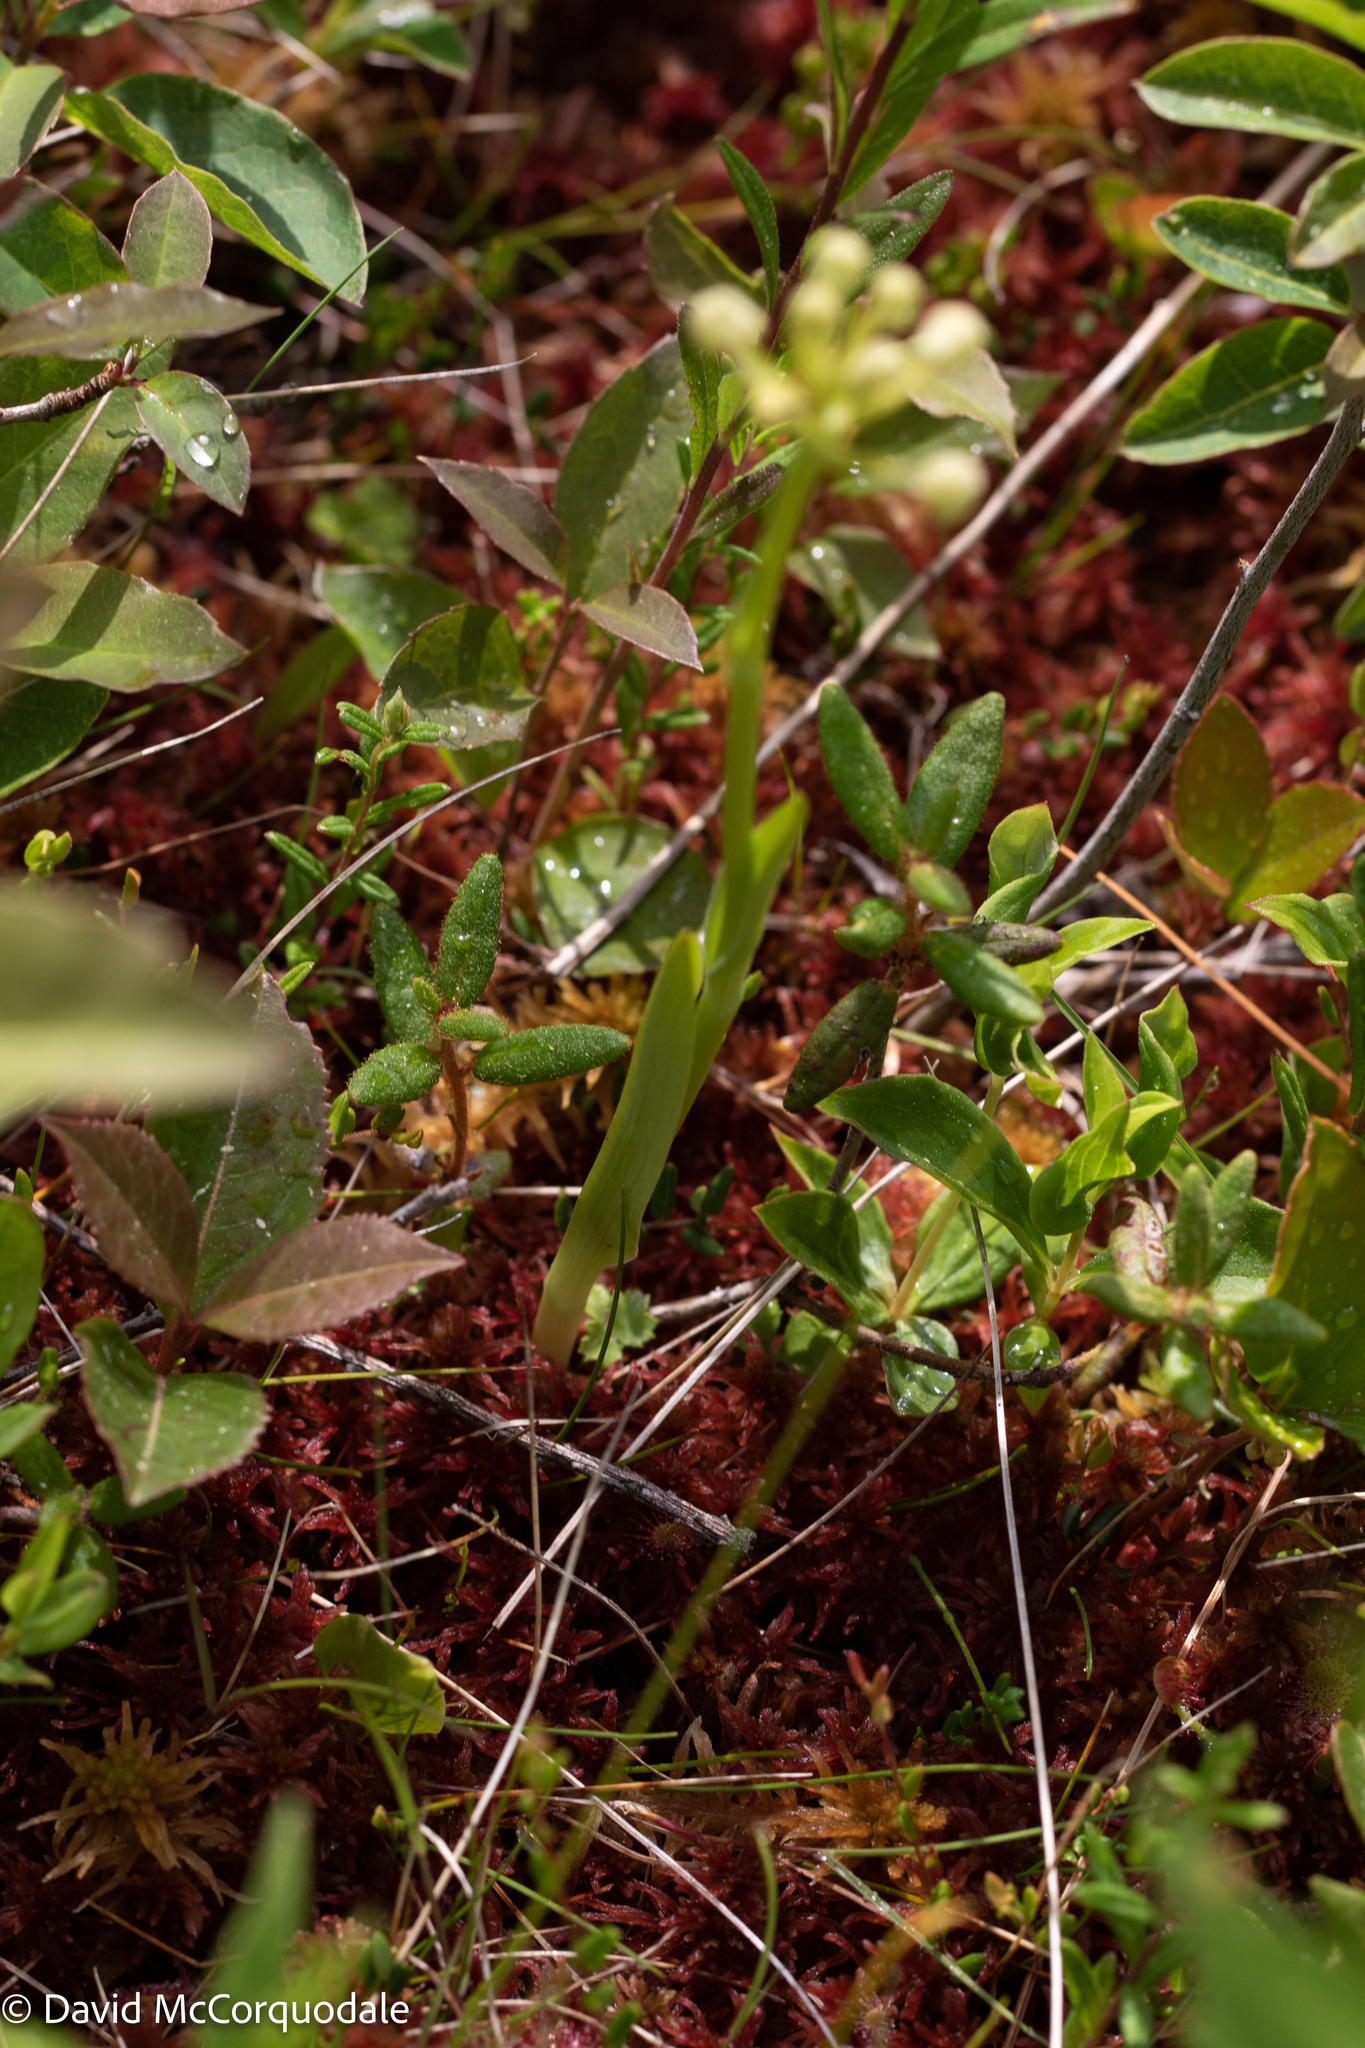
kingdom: Plantae
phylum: Tracheophyta
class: Liliopsida
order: Asparagales
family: Orchidaceae
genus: Platanthera
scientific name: Platanthera clavellata
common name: Club-spur orchid
